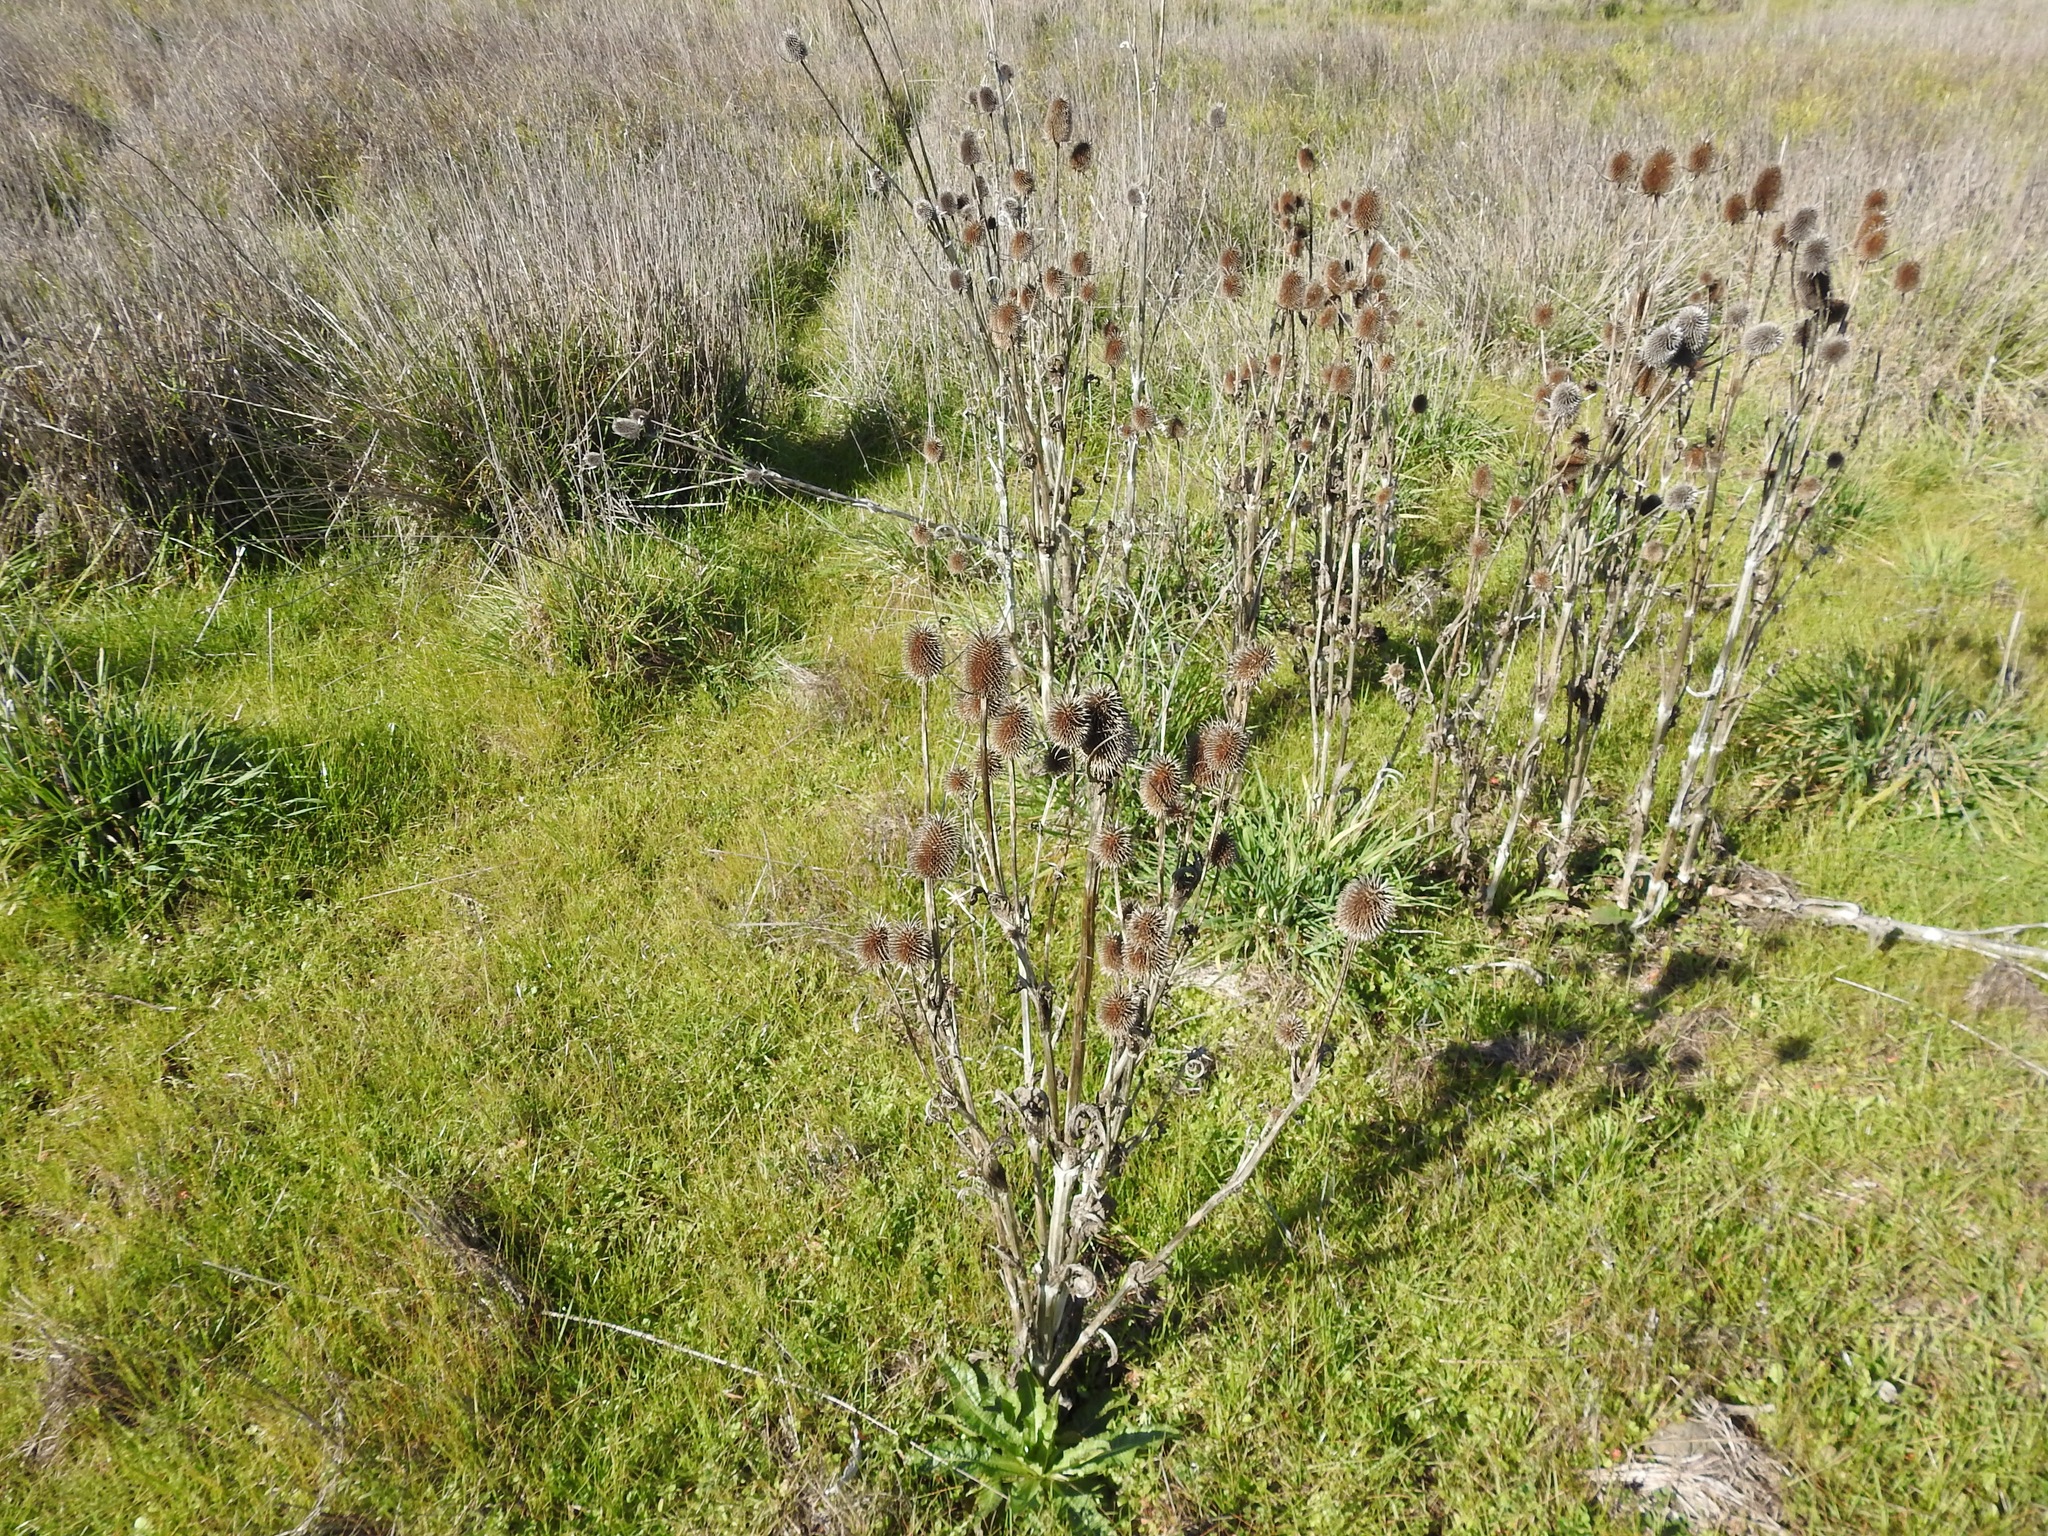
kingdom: Plantae
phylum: Tracheophyta
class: Magnoliopsida
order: Dipsacales
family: Caprifoliaceae
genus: Dipsacus
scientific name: Dipsacus sativus
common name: Fuller's teasel
